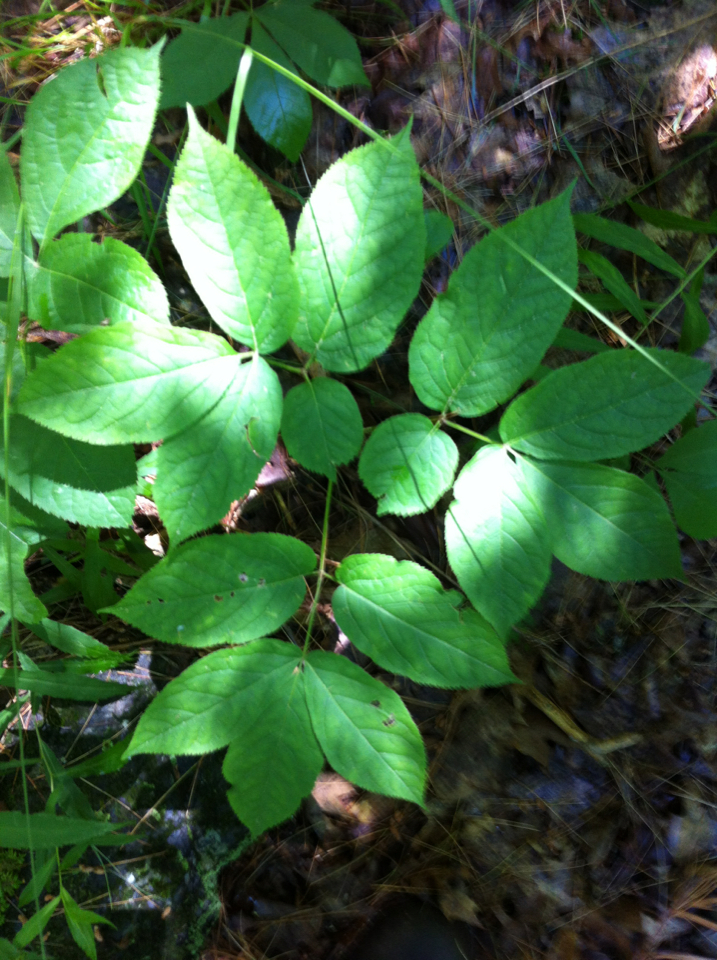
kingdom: Plantae
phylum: Tracheophyta
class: Magnoliopsida
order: Apiales
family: Araliaceae
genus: Aralia
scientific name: Aralia nudicaulis
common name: Wild sarsaparilla
